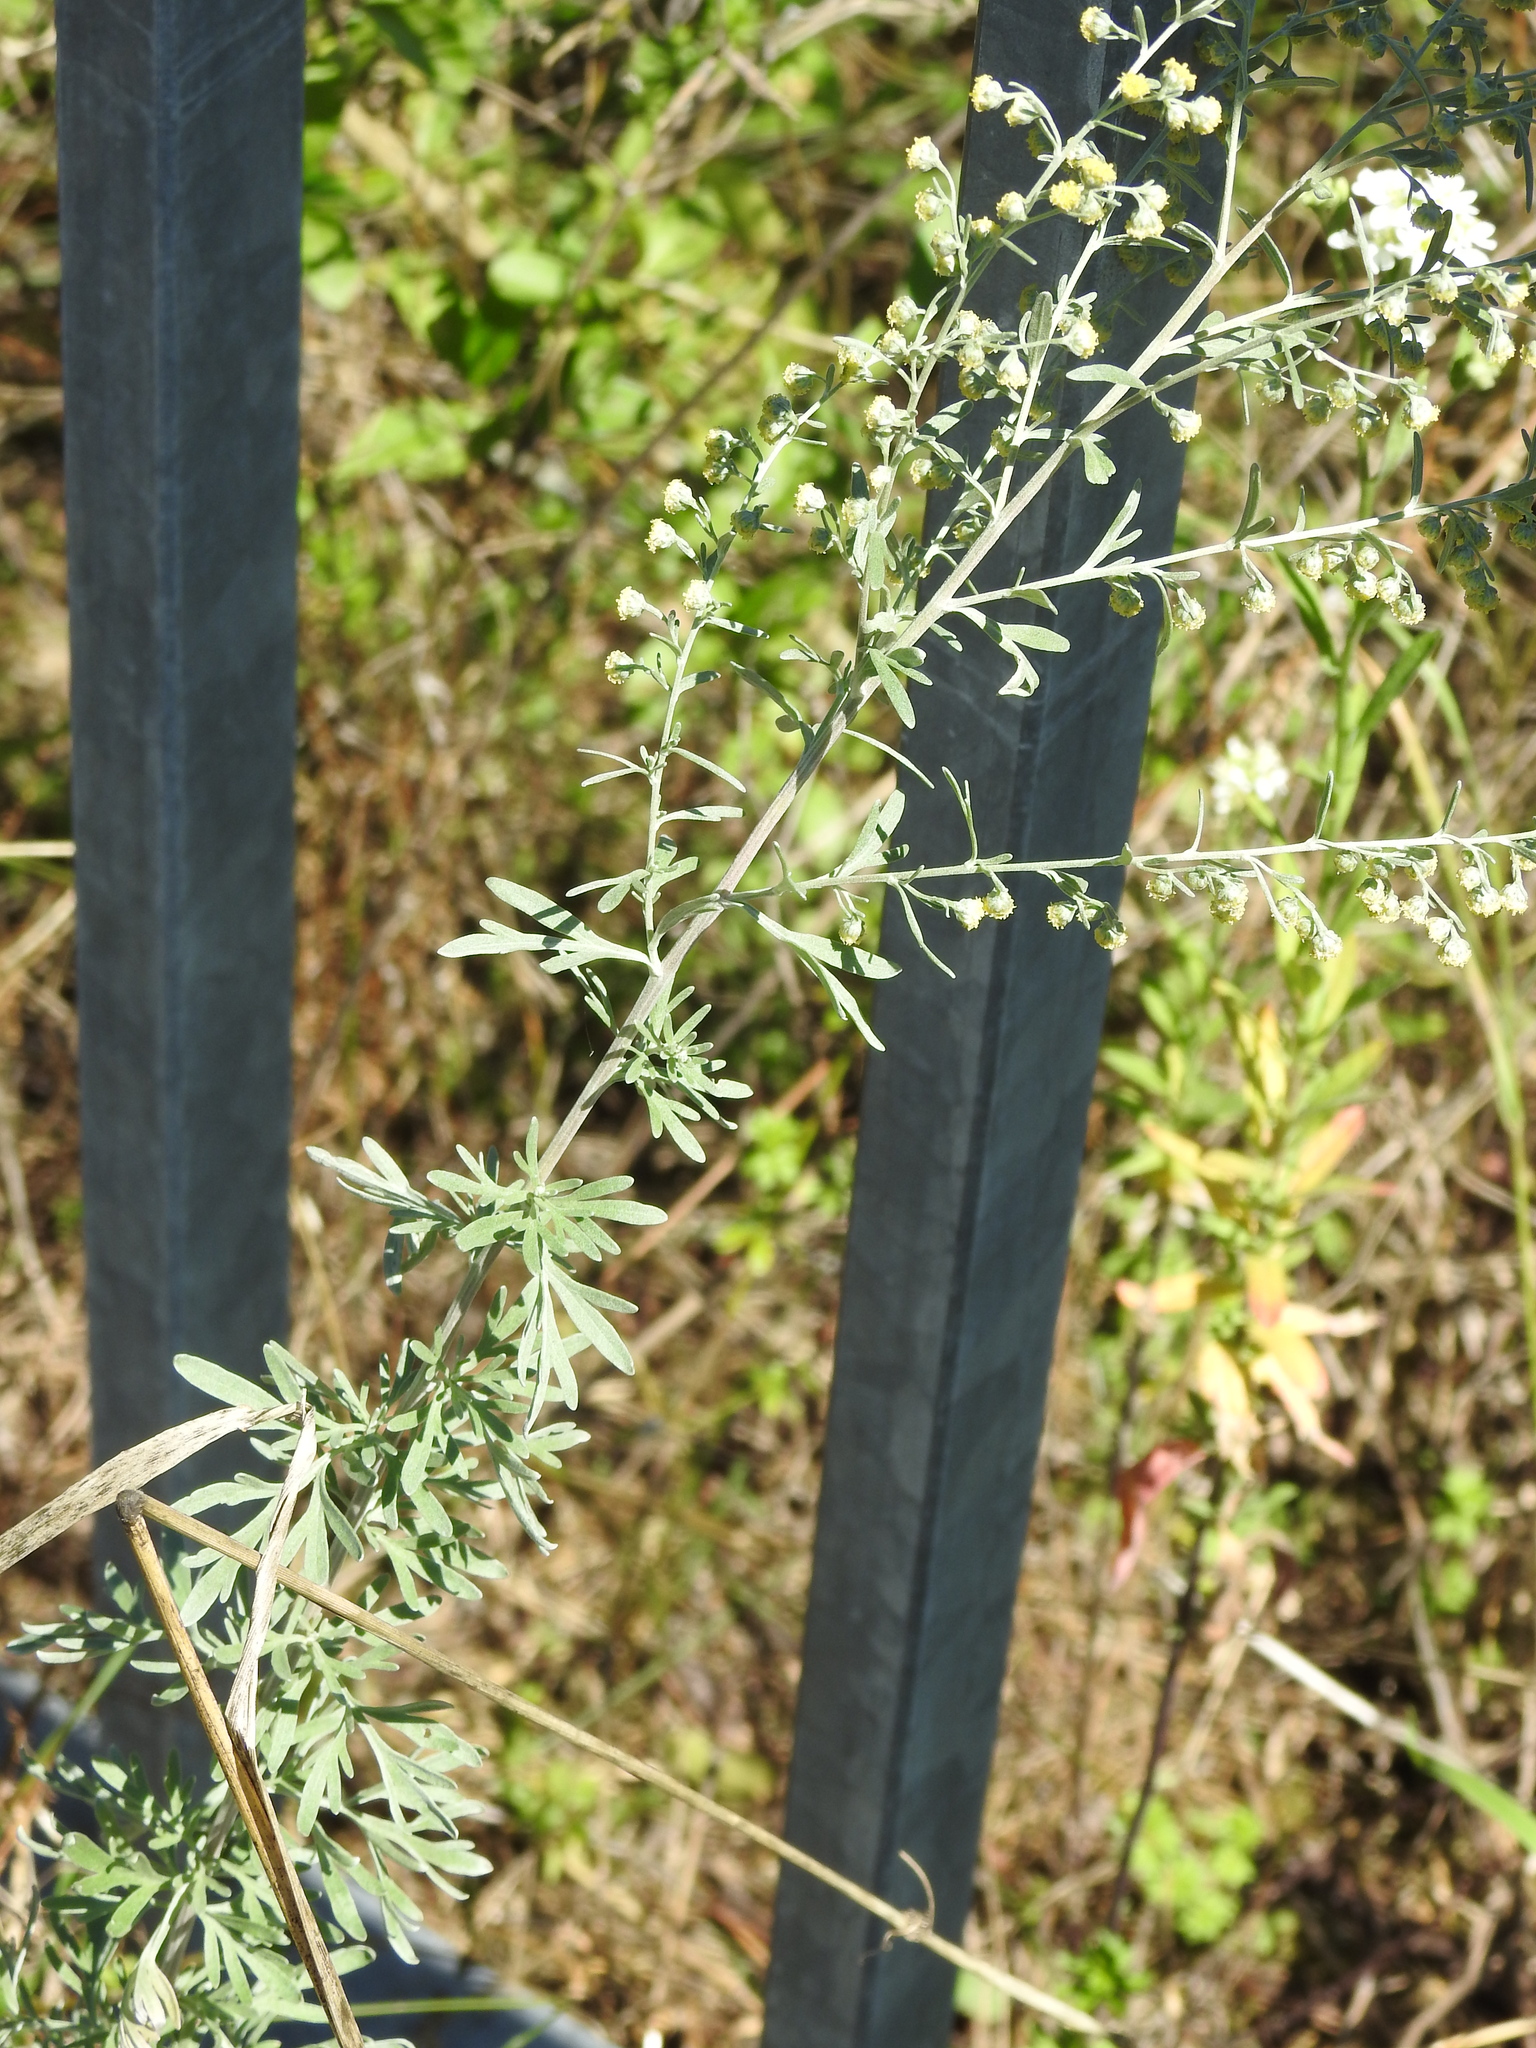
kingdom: Plantae
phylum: Tracheophyta
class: Magnoliopsida
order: Asterales
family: Asteraceae
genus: Artemisia
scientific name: Artemisia absinthium
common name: Wormwood
